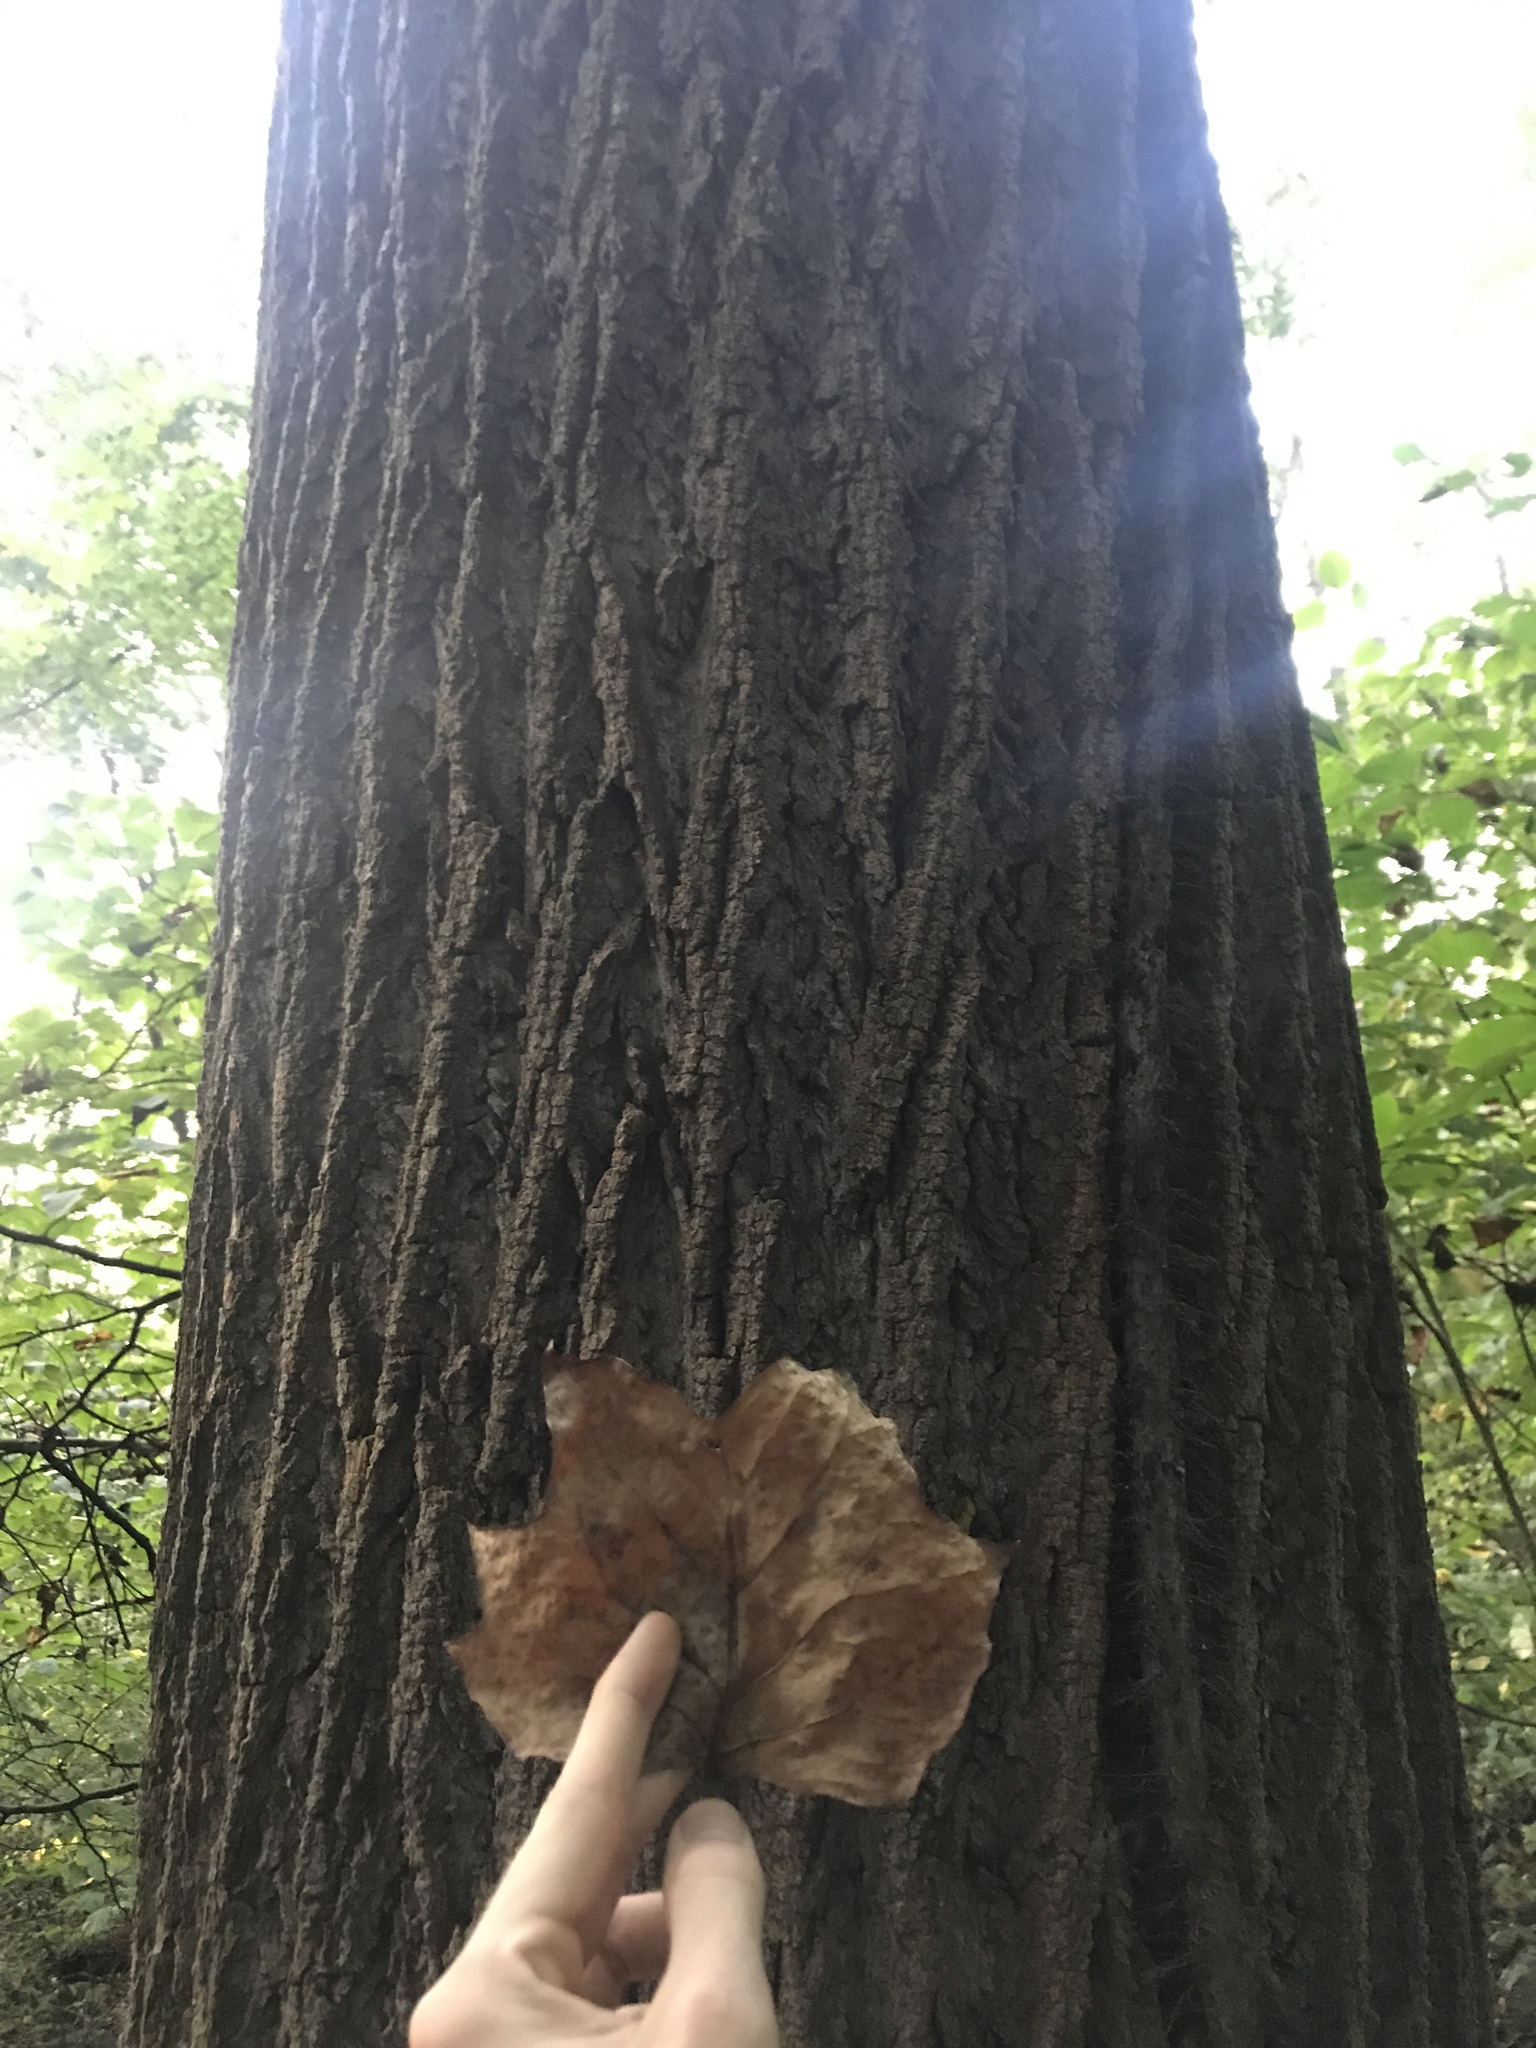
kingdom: Plantae
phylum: Tracheophyta
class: Magnoliopsida
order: Magnoliales
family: Magnoliaceae
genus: Liriodendron
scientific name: Liriodendron tulipifera
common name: Tulip tree
